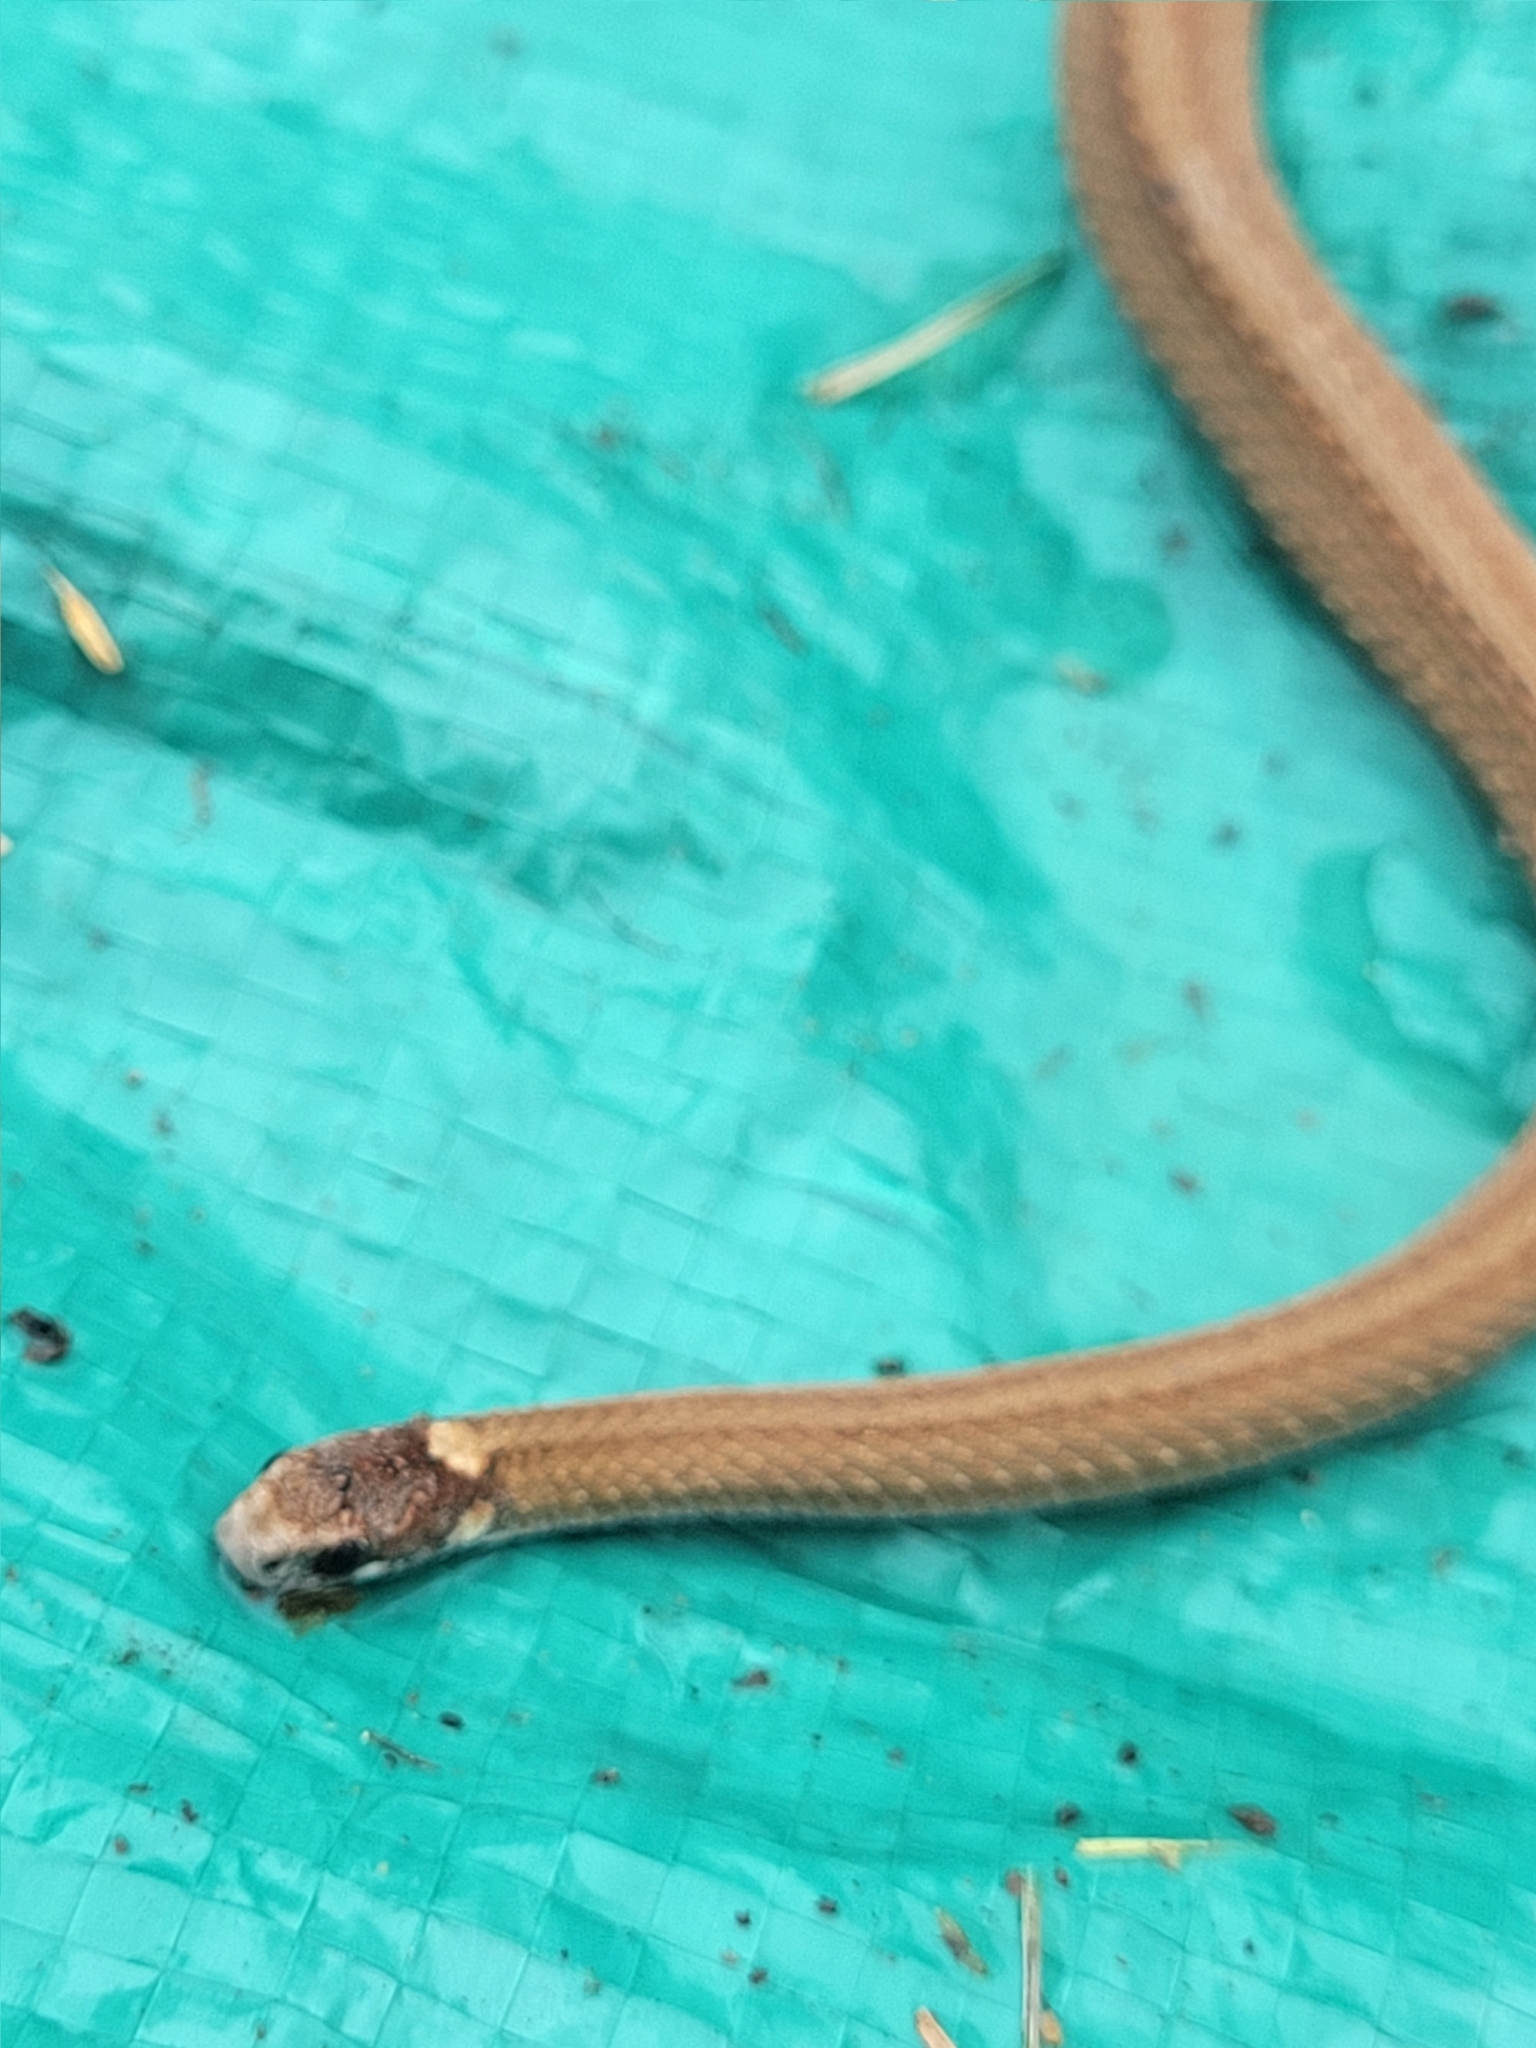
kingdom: Animalia
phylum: Chordata
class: Squamata
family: Colubridae
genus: Storeria
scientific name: Storeria occipitomaculata
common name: Redbelly snake
